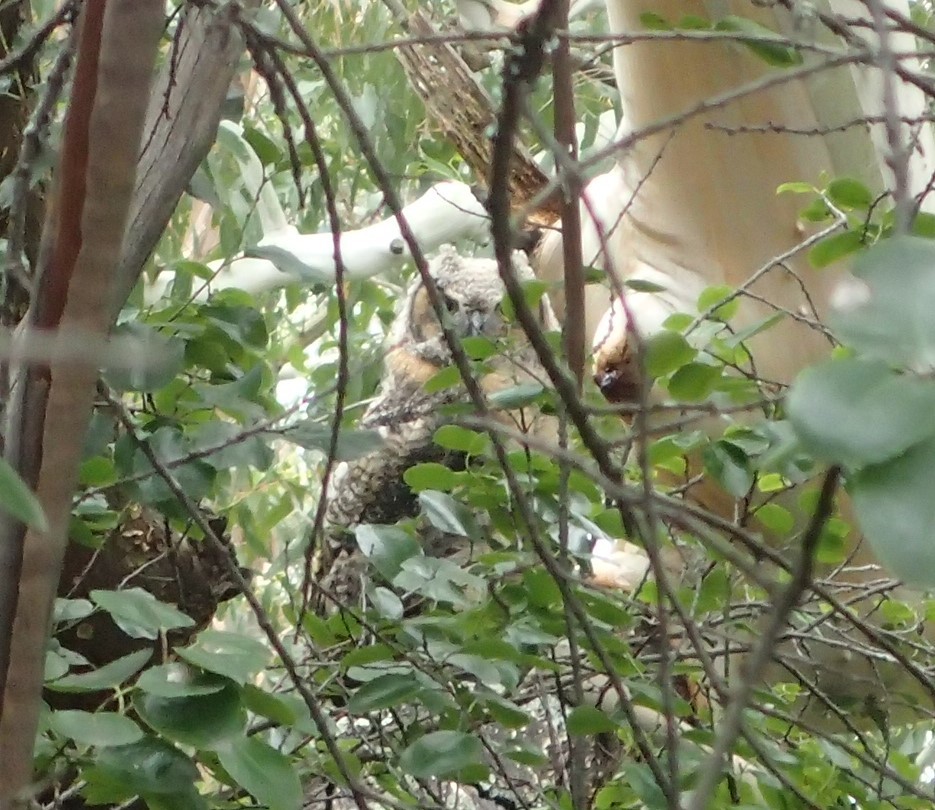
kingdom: Animalia
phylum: Chordata
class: Aves
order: Strigiformes
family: Strigidae
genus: Bubo
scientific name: Bubo virginianus
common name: Great horned owl
